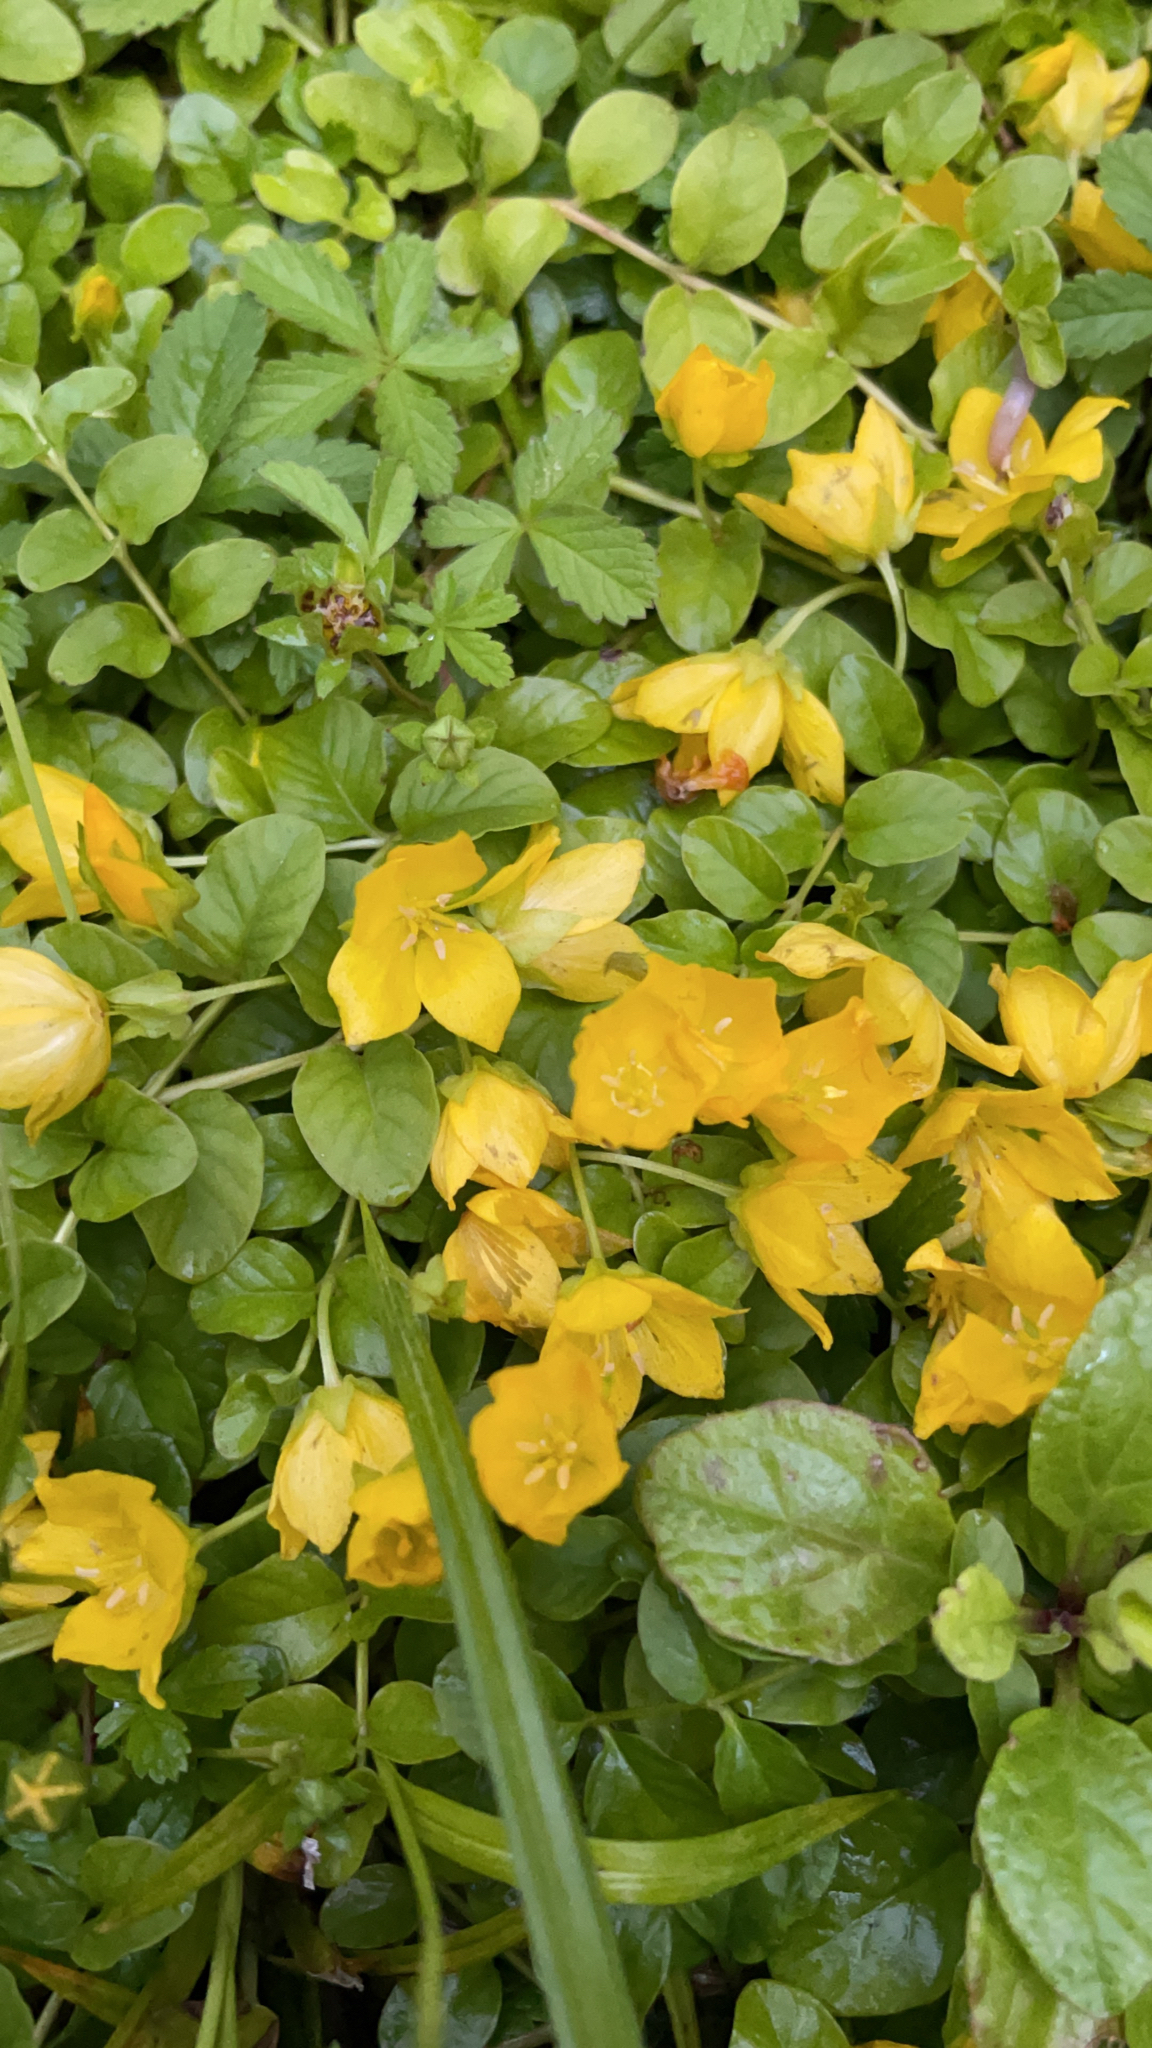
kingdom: Plantae
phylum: Tracheophyta
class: Magnoliopsida
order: Ericales
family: Primulaceae
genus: Lysimachia
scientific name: Lysimachia nummularia
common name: Moneywort
